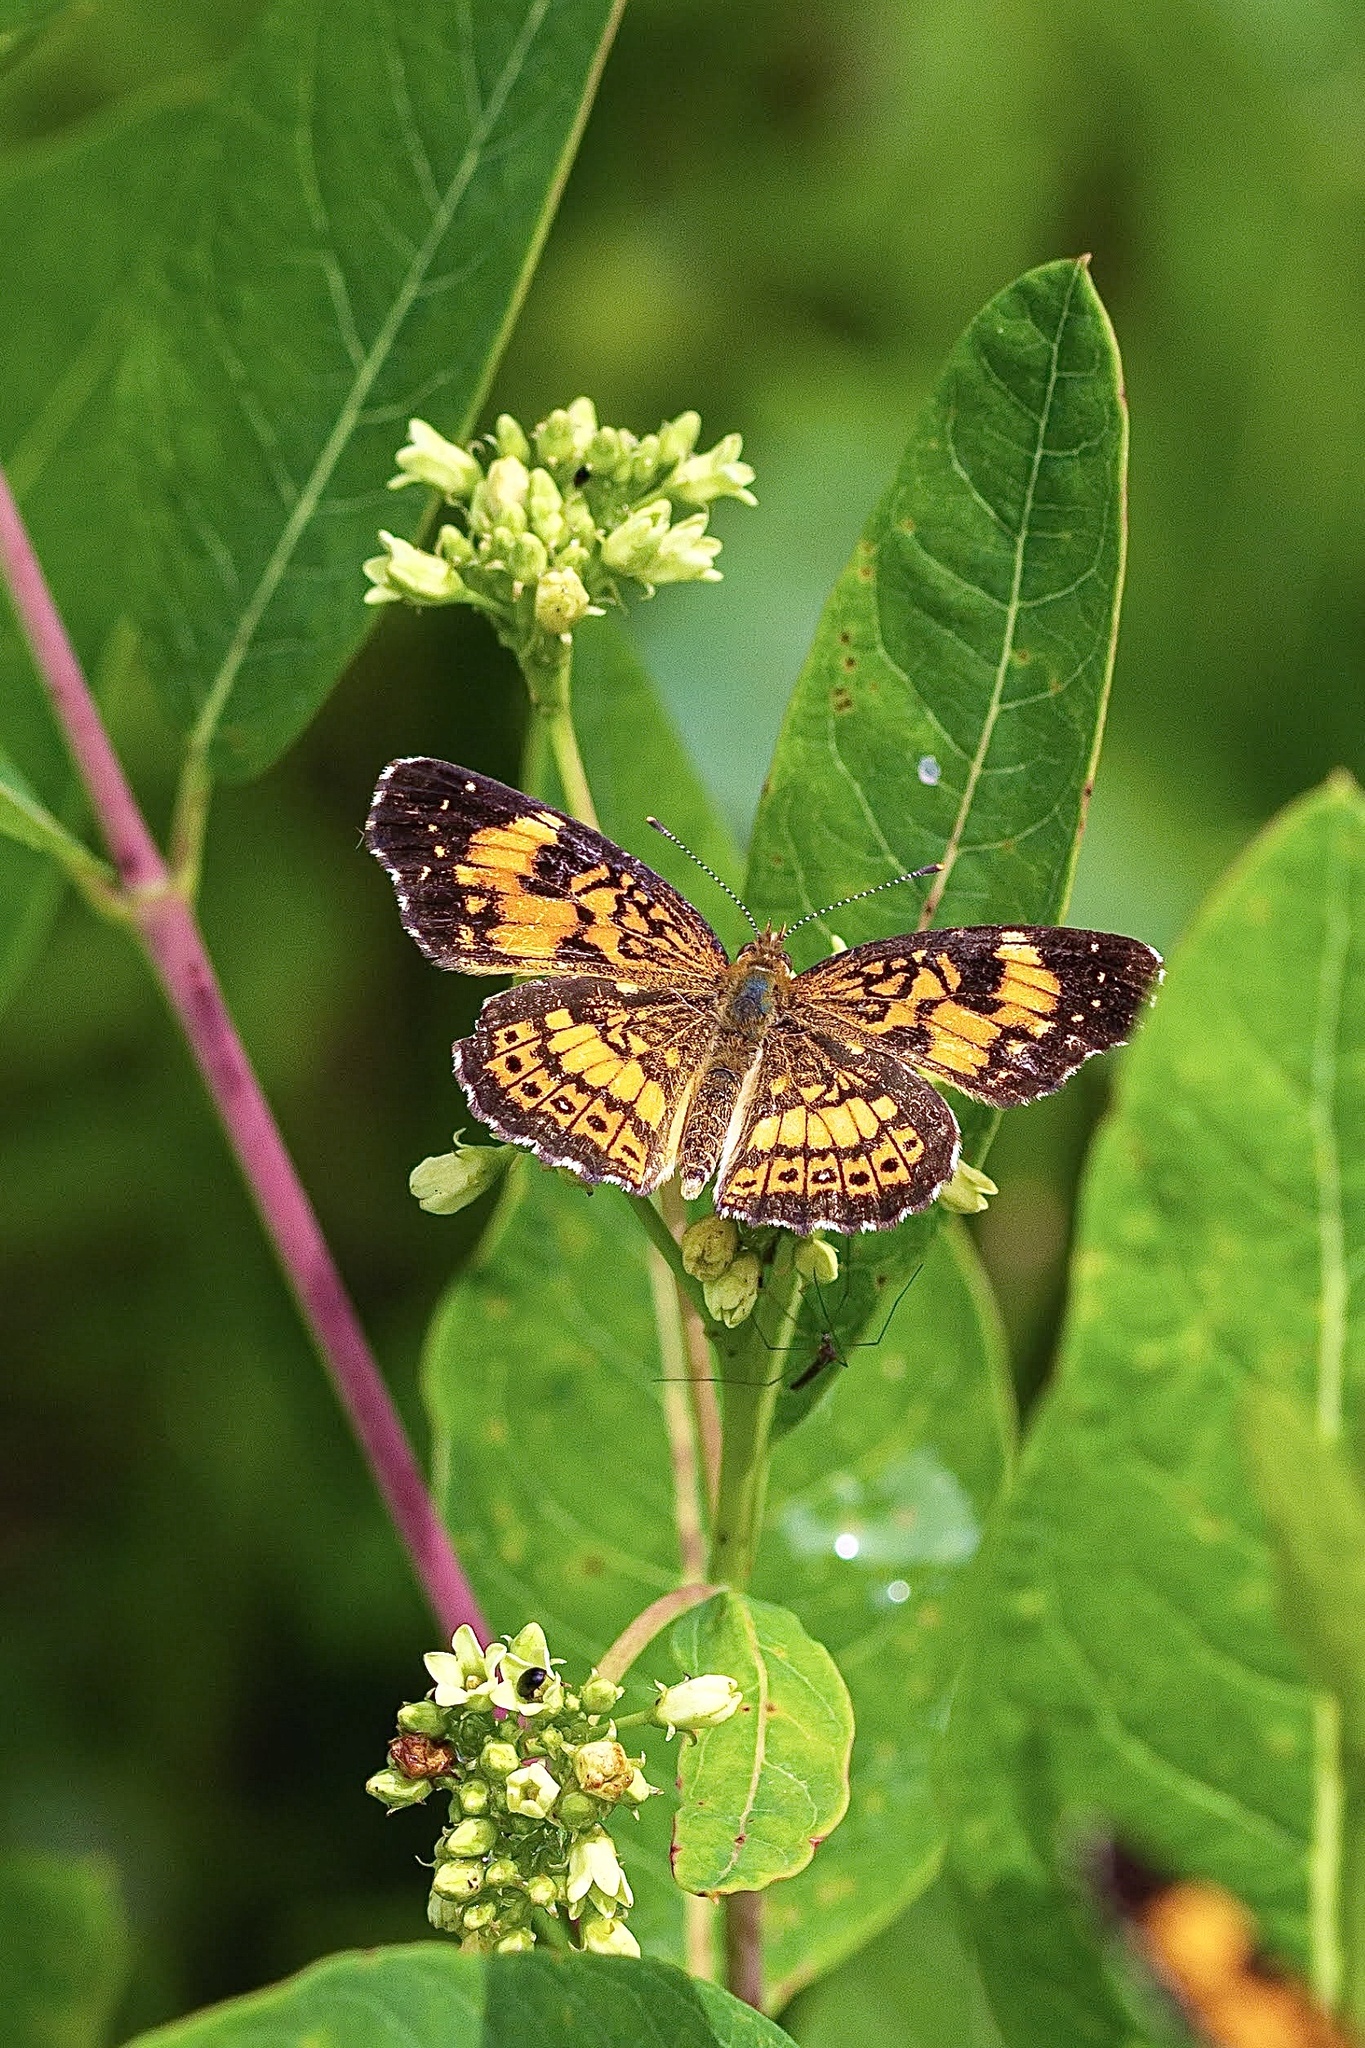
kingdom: Animalia
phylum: Arthropoda
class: Insecta
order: Lepidoptera
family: Nymphalidae
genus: Chlosyne
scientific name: Chlosyne nycteis
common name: Silvery checkerspot
